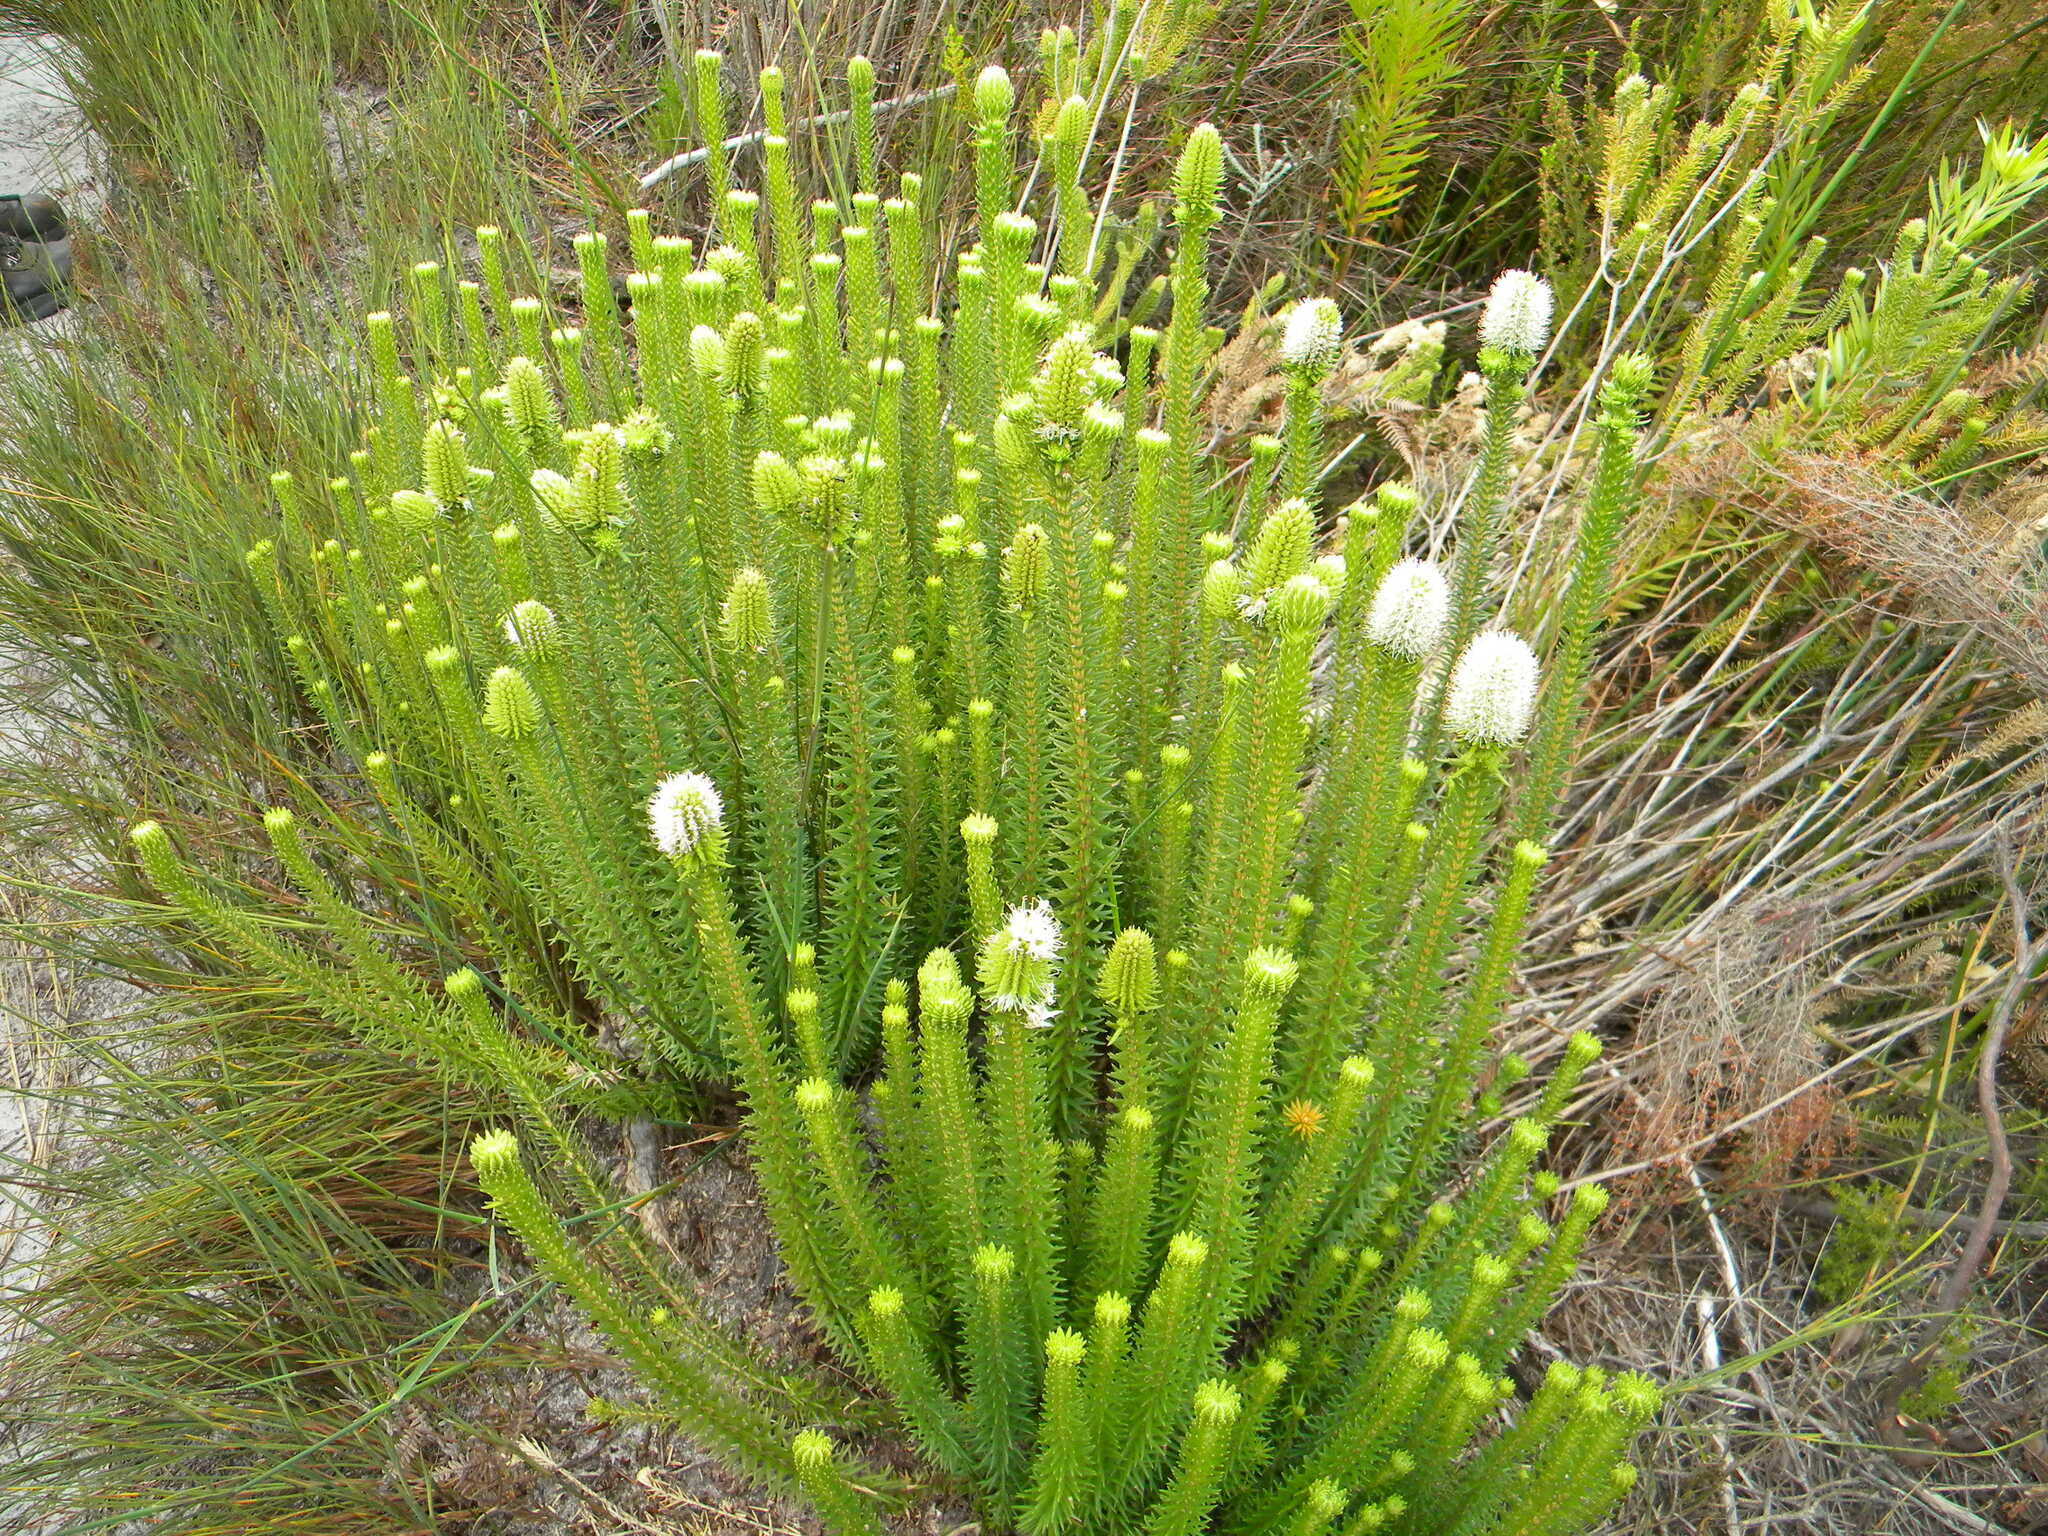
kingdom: Plantae
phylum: Tracheophyta
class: Magnoliopsida
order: Lamiales
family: Stilbaceae
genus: Stilbe
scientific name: Stilbe vestita
